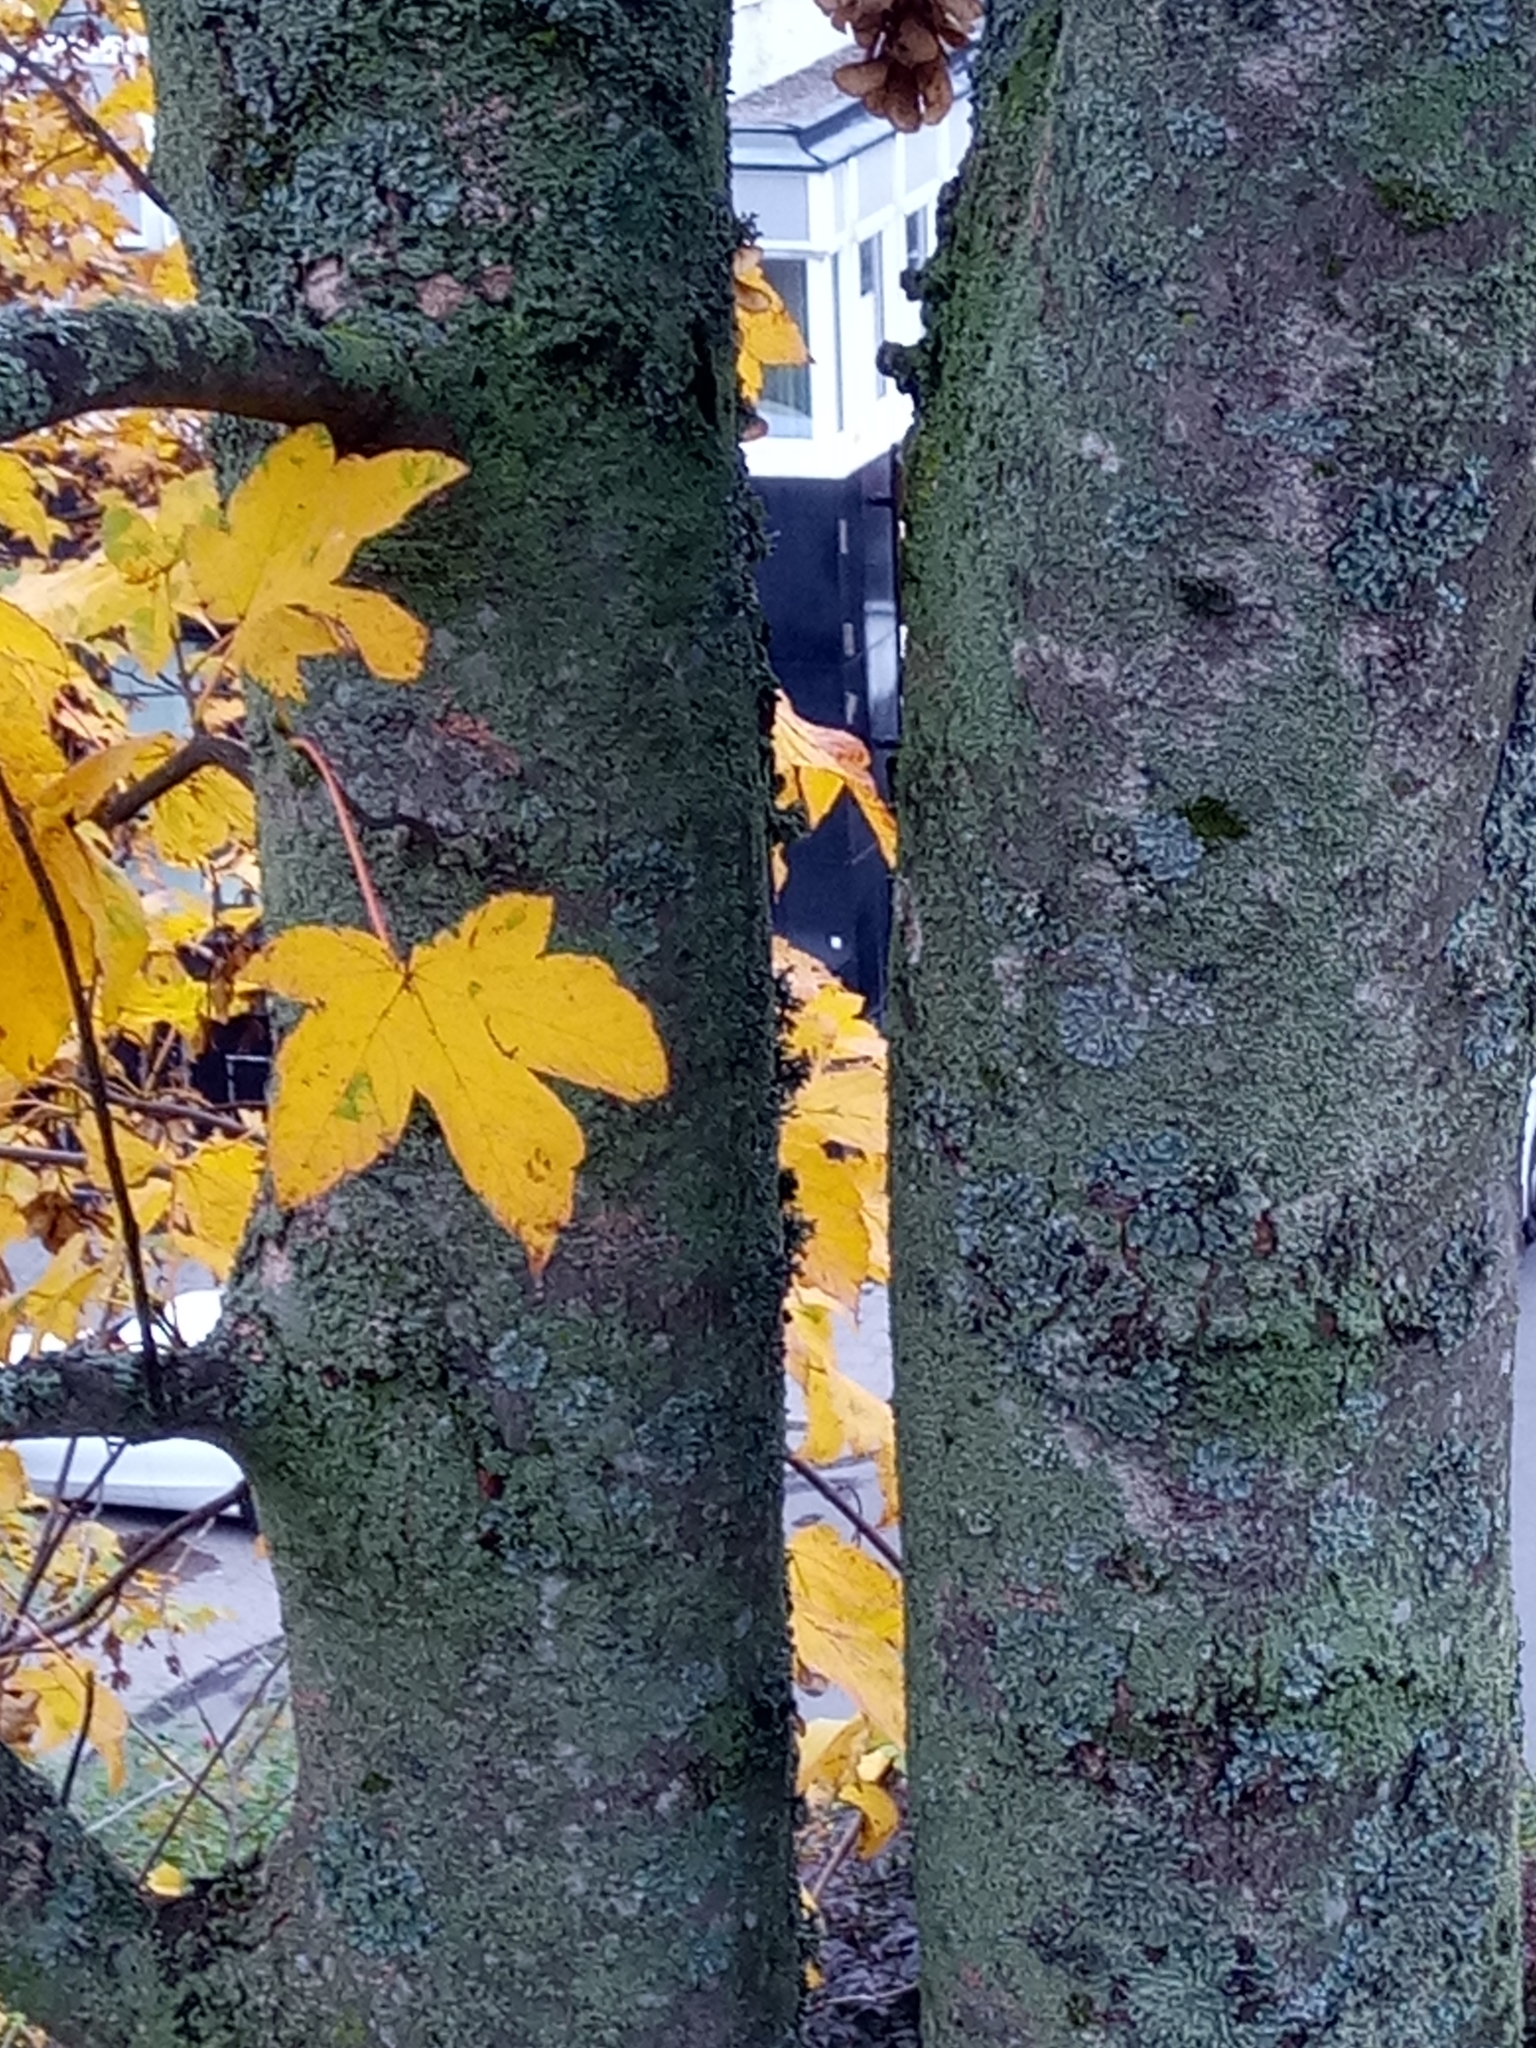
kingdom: Plantae
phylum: Tracheophyta
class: Magnoliopsida
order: Sapindales
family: Sapindaceae
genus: Acer
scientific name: Acer pseudoplatanus
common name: Sycamore
